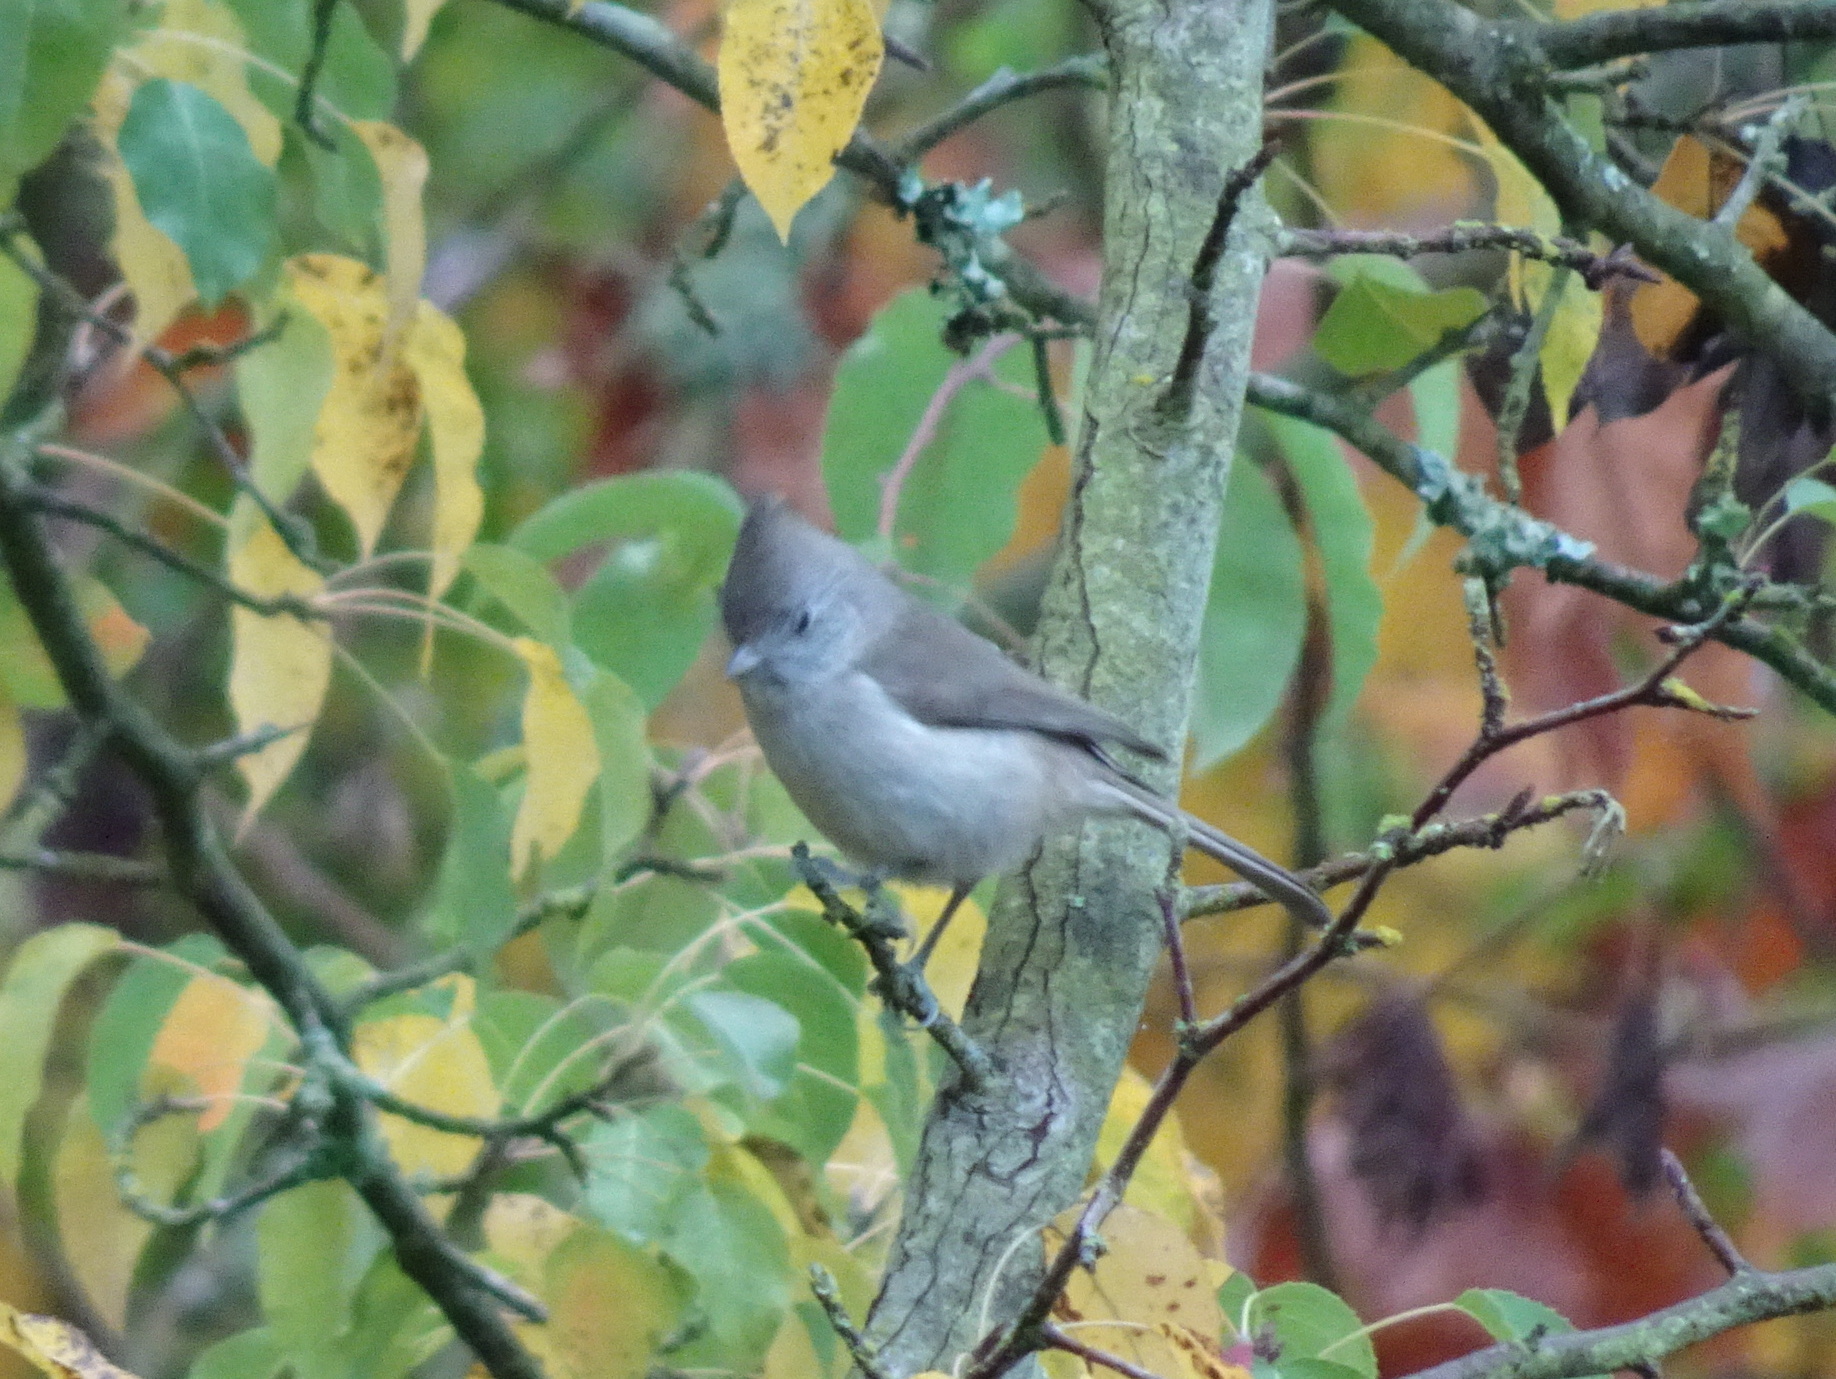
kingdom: Animalia
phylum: Chordata
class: Aves
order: Passeriformes
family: Paridae
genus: Baeolophus
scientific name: Baeolophus inornatus
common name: Oak titmouse
